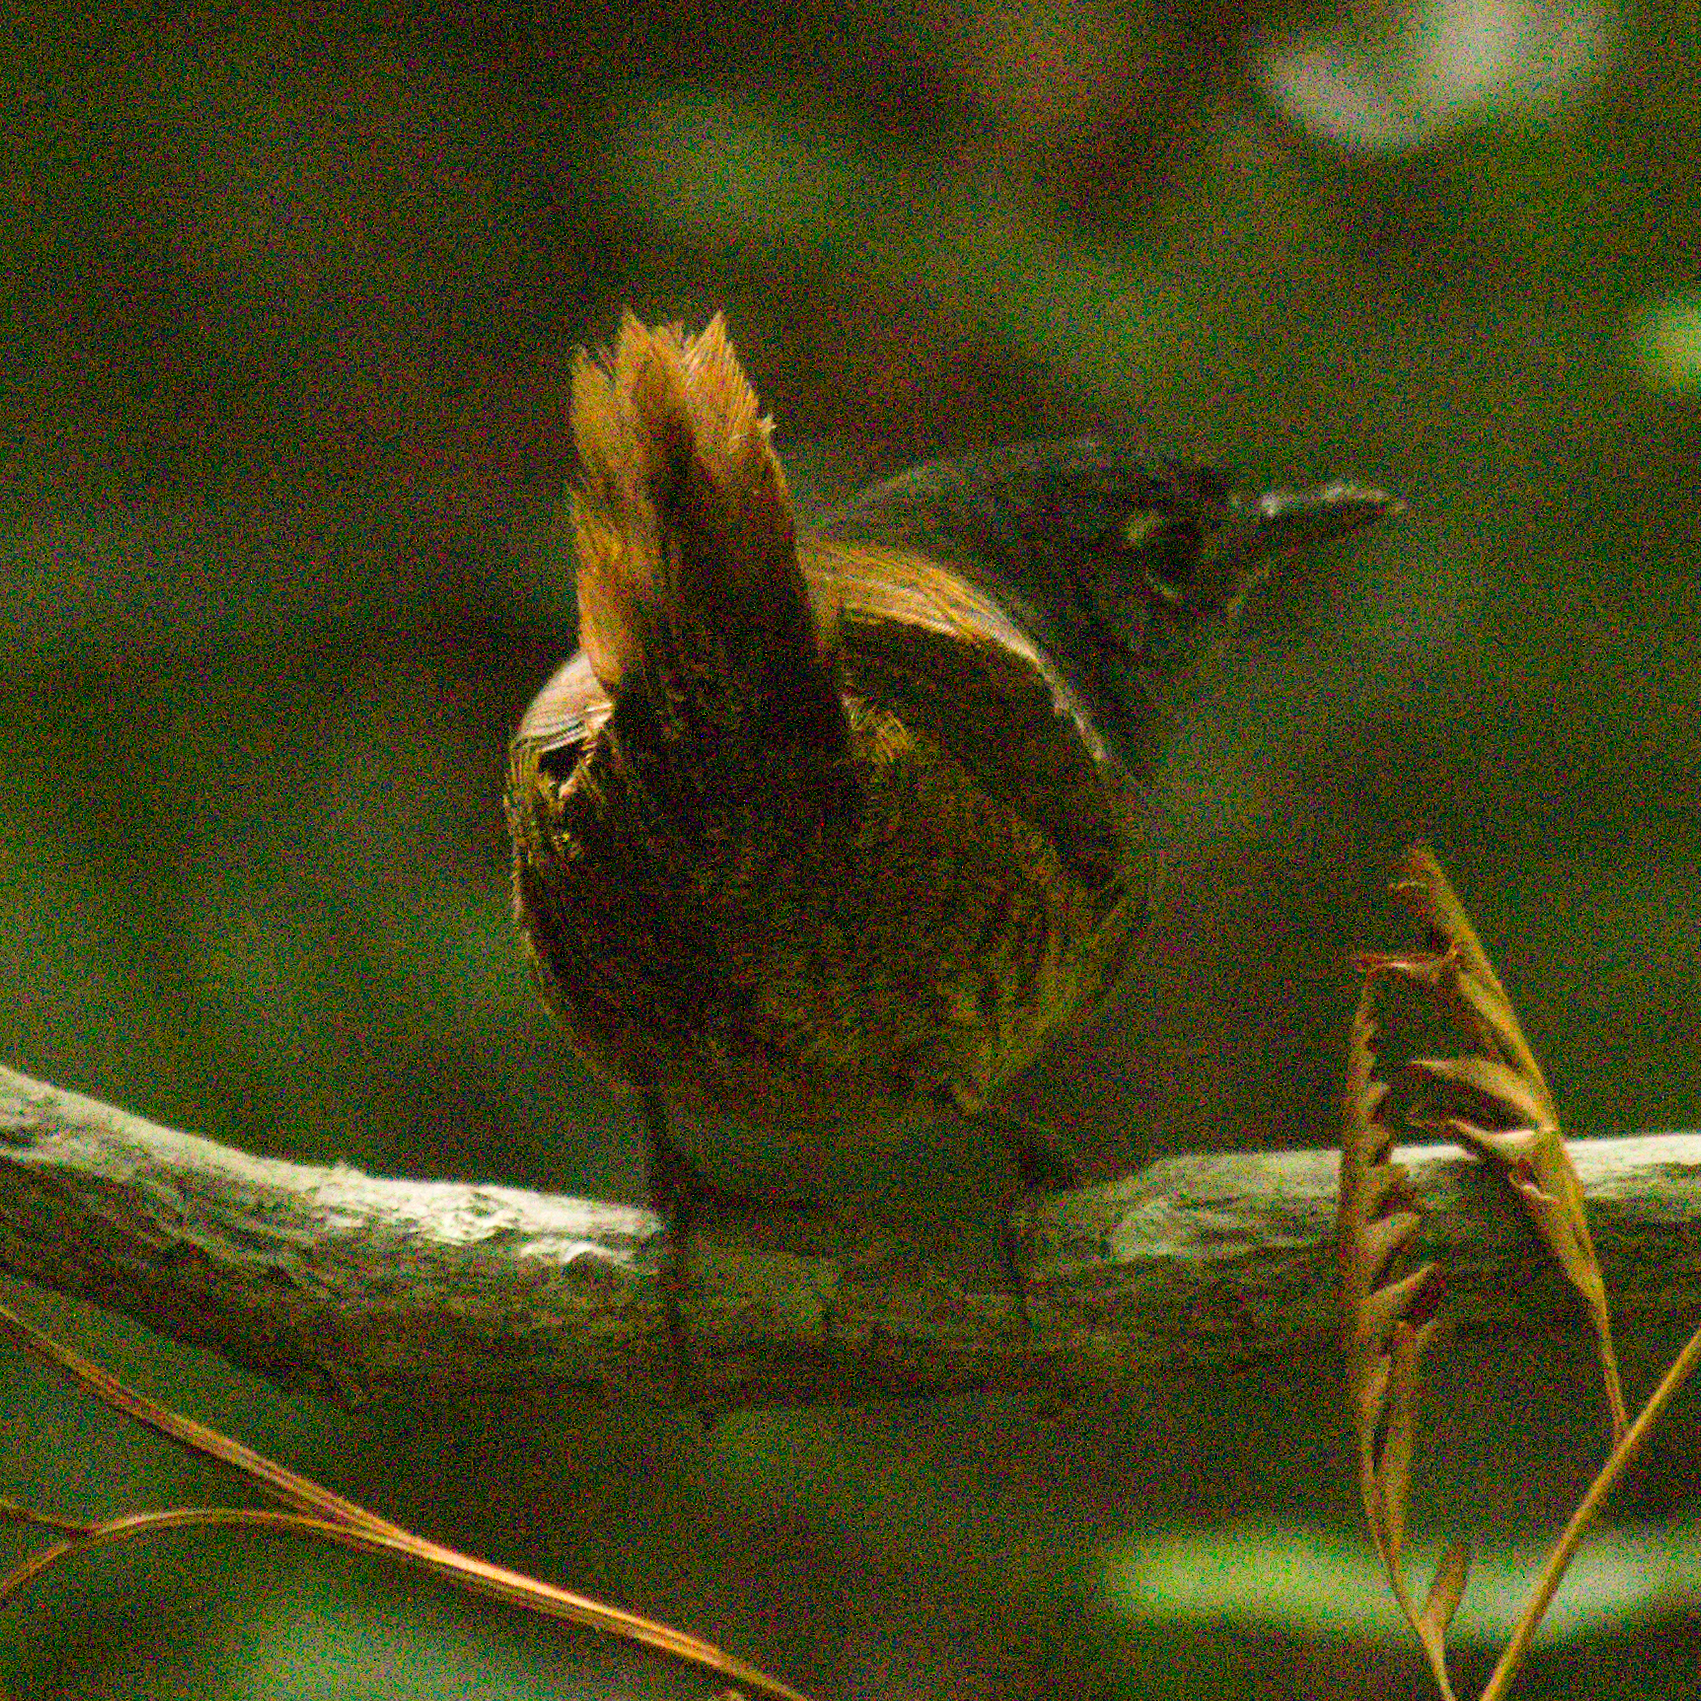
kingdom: Animalia
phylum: Chordata
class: Aves
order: Passeriformes
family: Rhinocryptidae
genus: Eleoscytalopus
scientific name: Eleoscytalopus indigoticus
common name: White-breasted tapaculo
